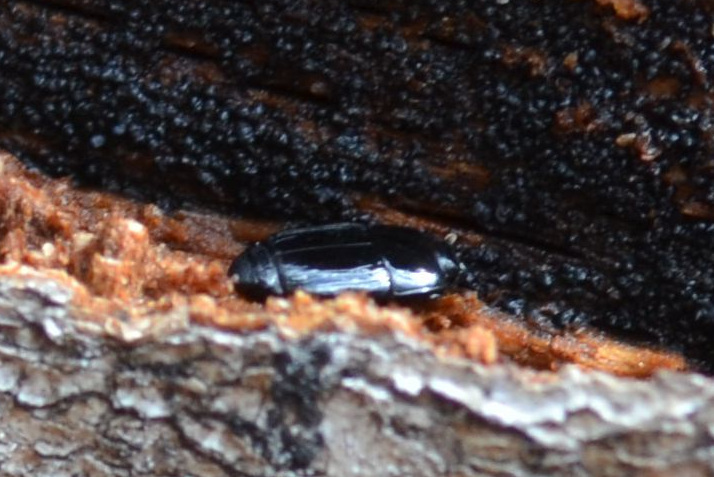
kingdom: Animalia
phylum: Arthropoda
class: Insecta
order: Coleoptera
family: Histeridae
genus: Platysoma
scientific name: Platysoma compressum
